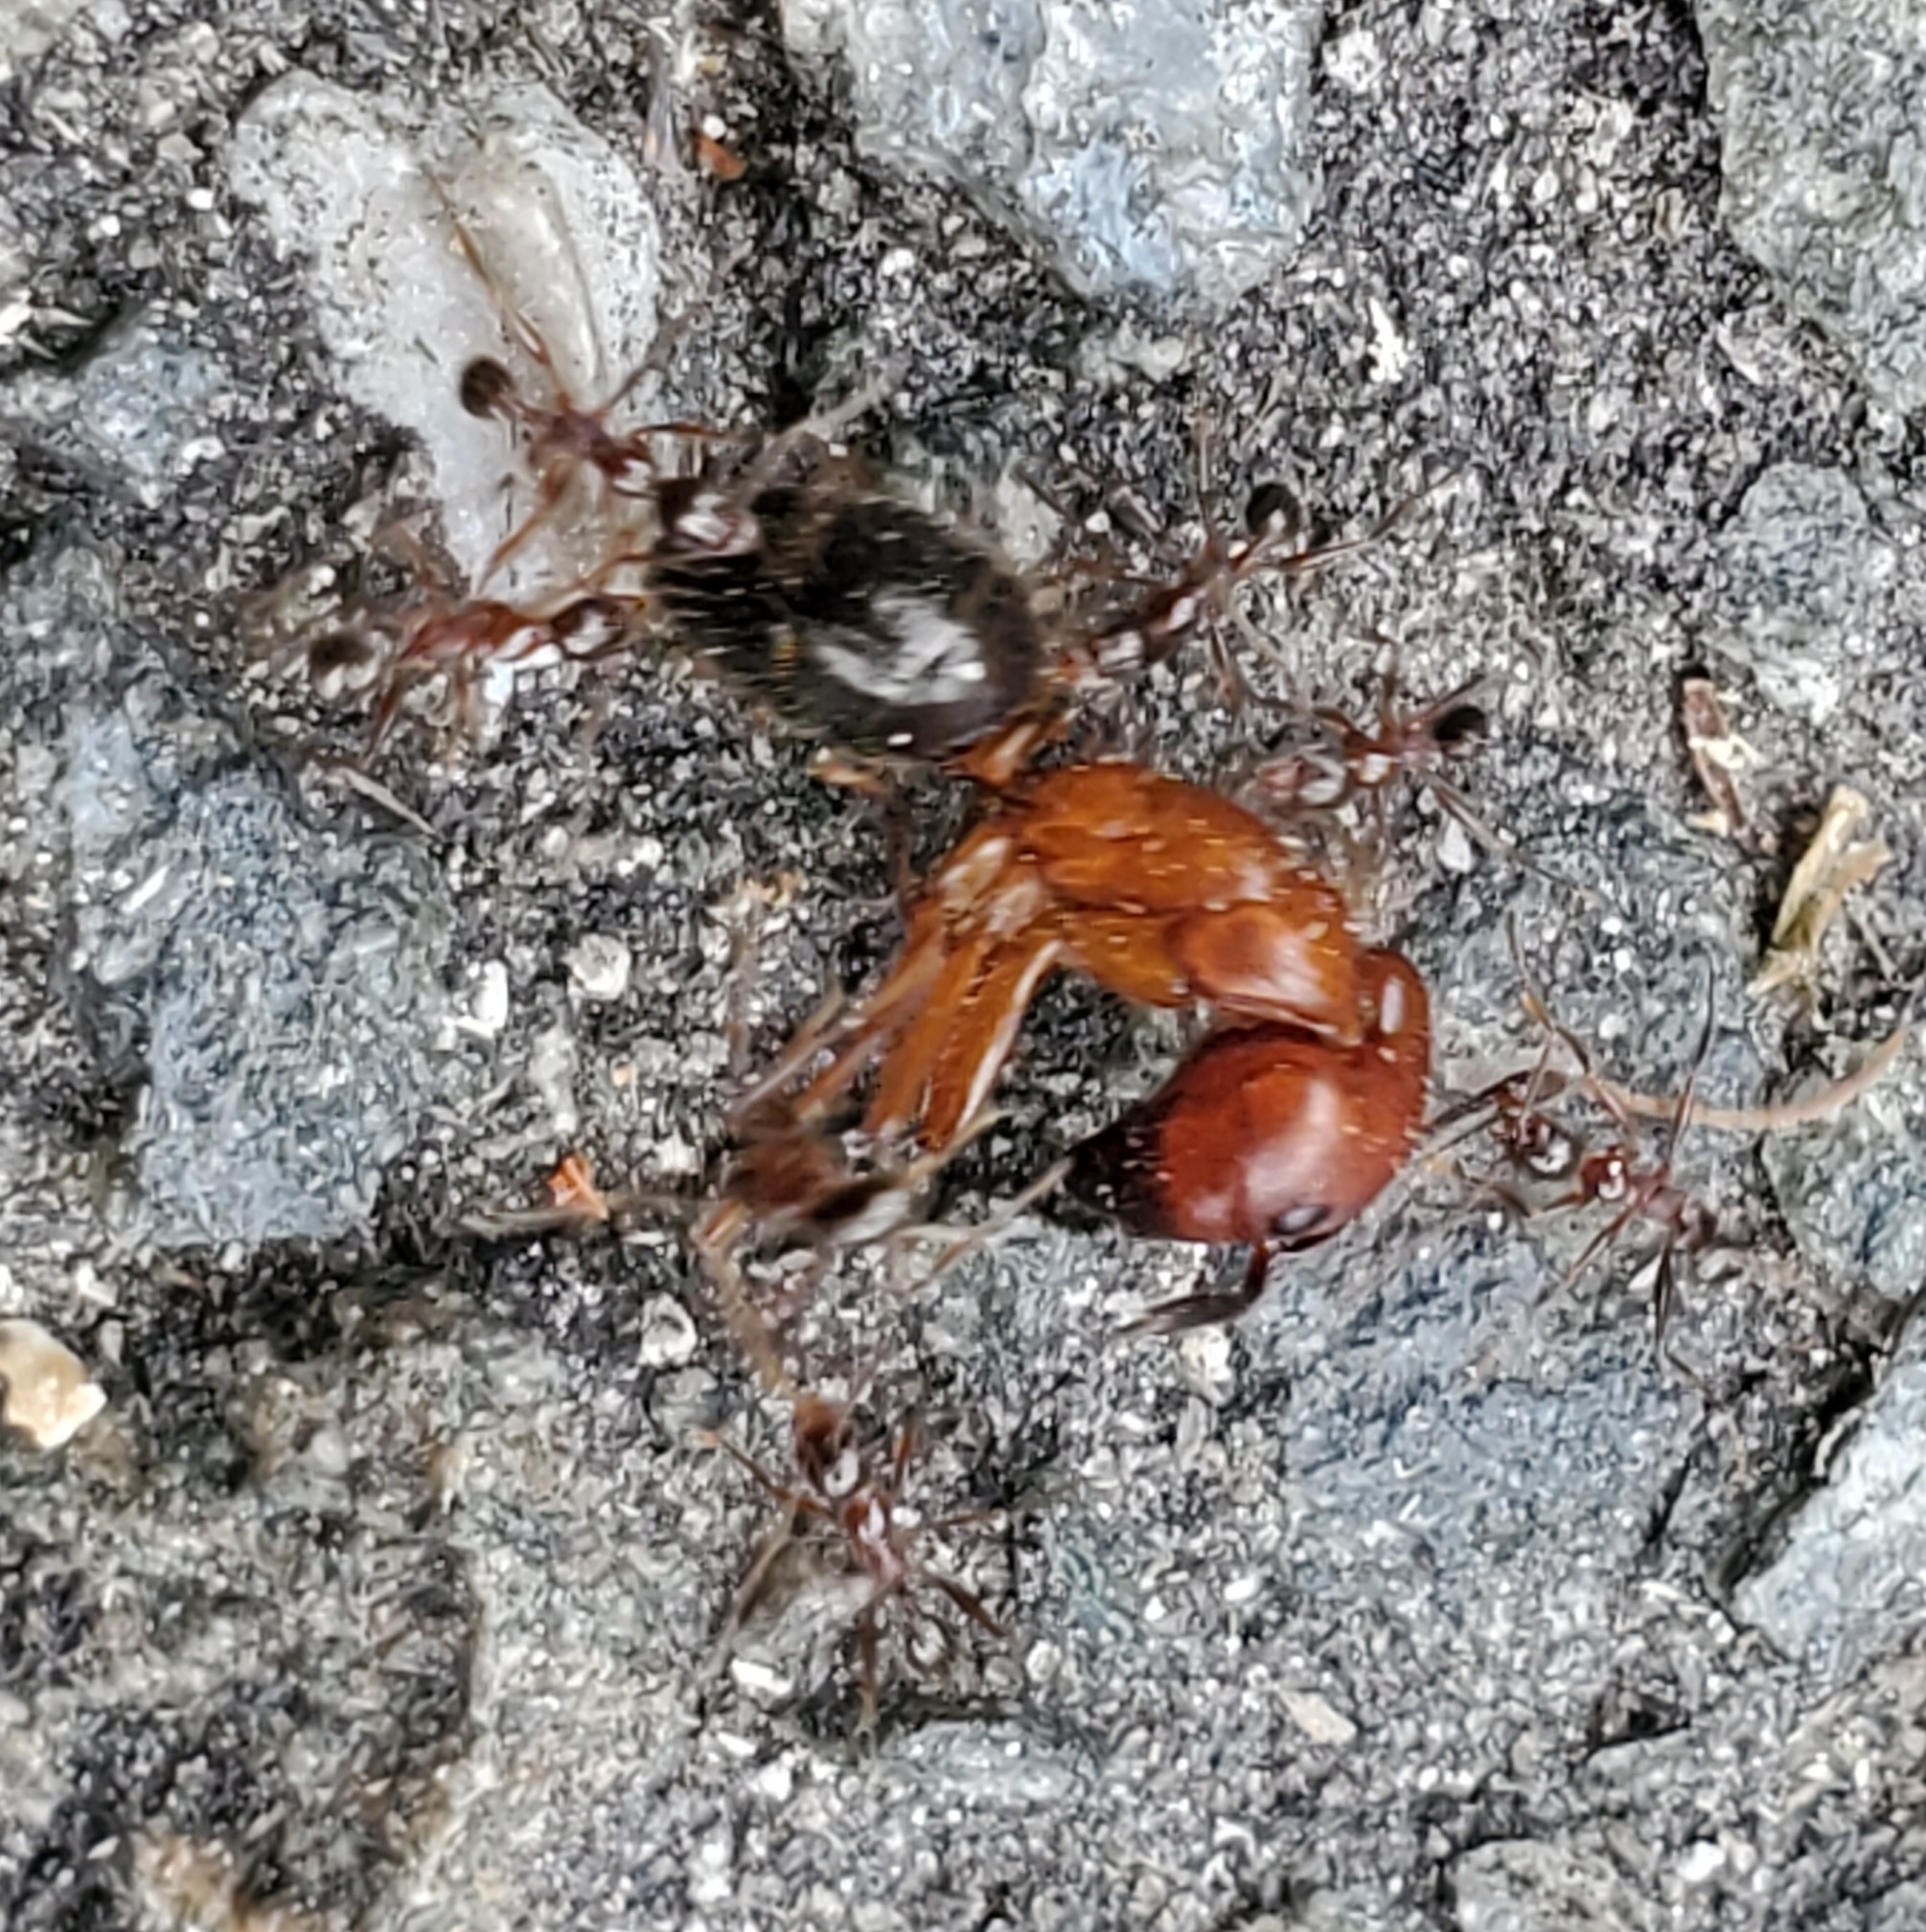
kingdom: Animalia
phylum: Arthropoda
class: Insecta
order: Hymenoptera
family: Formicidae
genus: Camponotus
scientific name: Camponotus floridanus
